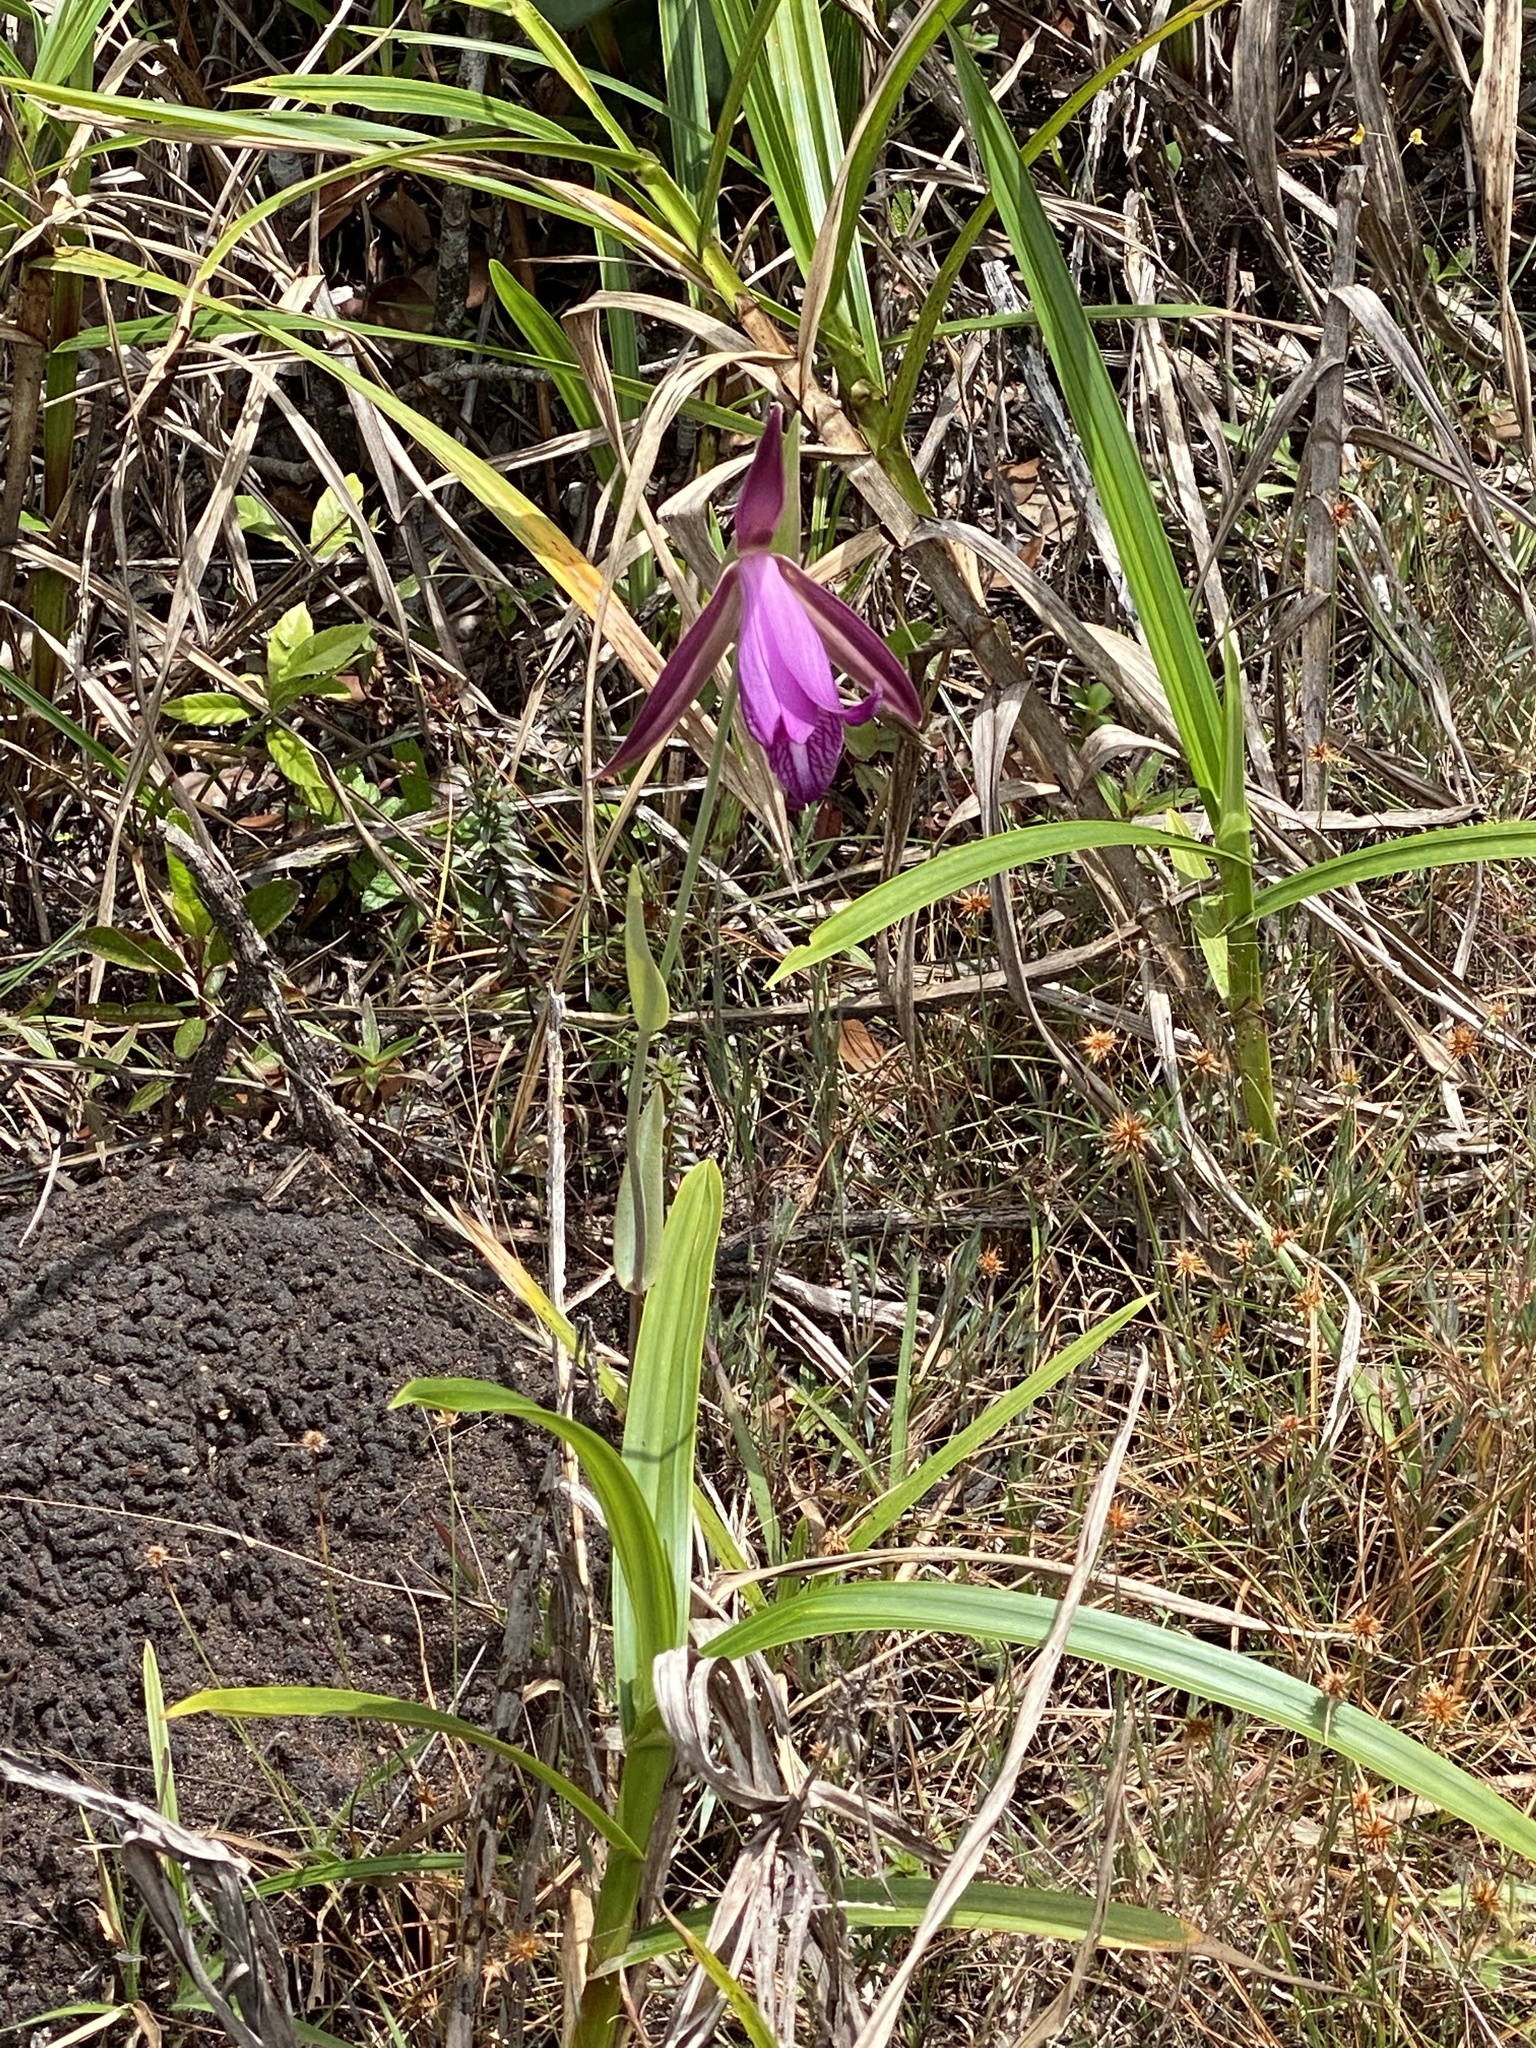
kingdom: Plantae
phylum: Tracheophyta
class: Liliopsida
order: Asparagales
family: Orchidaceae
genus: Cleistes
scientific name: Cleistes rosea
